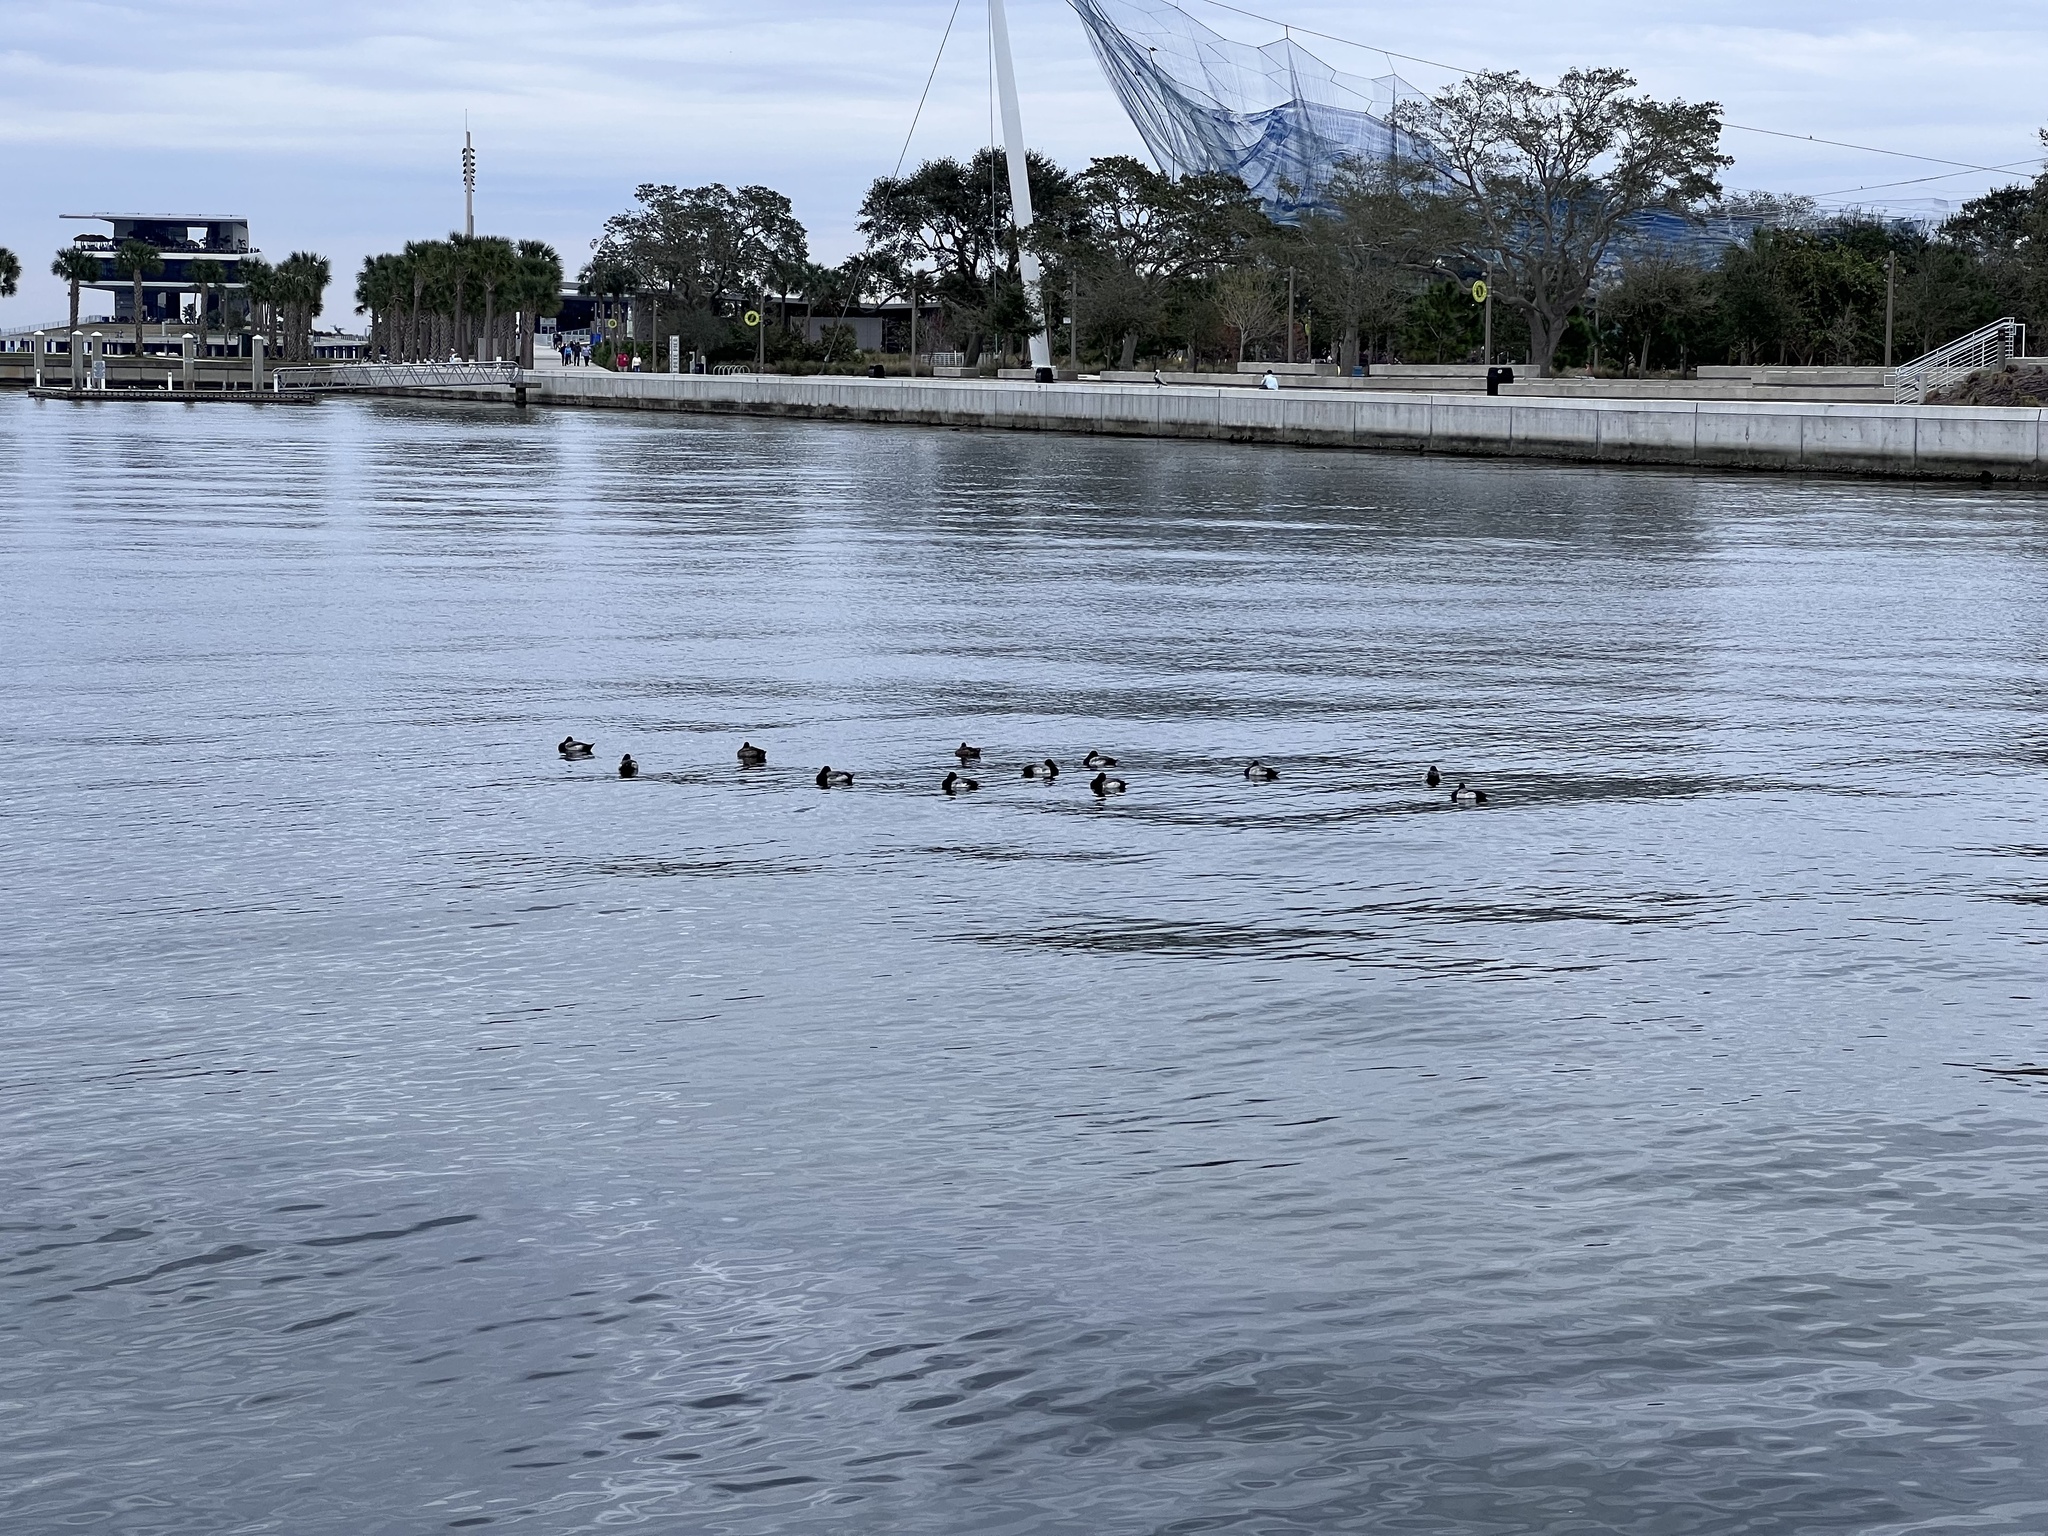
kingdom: Animalia
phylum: Chordata
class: Aves
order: Anseriformes
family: Anatidae
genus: Aythya
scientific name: Aythya affinis
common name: Lesser scaup
